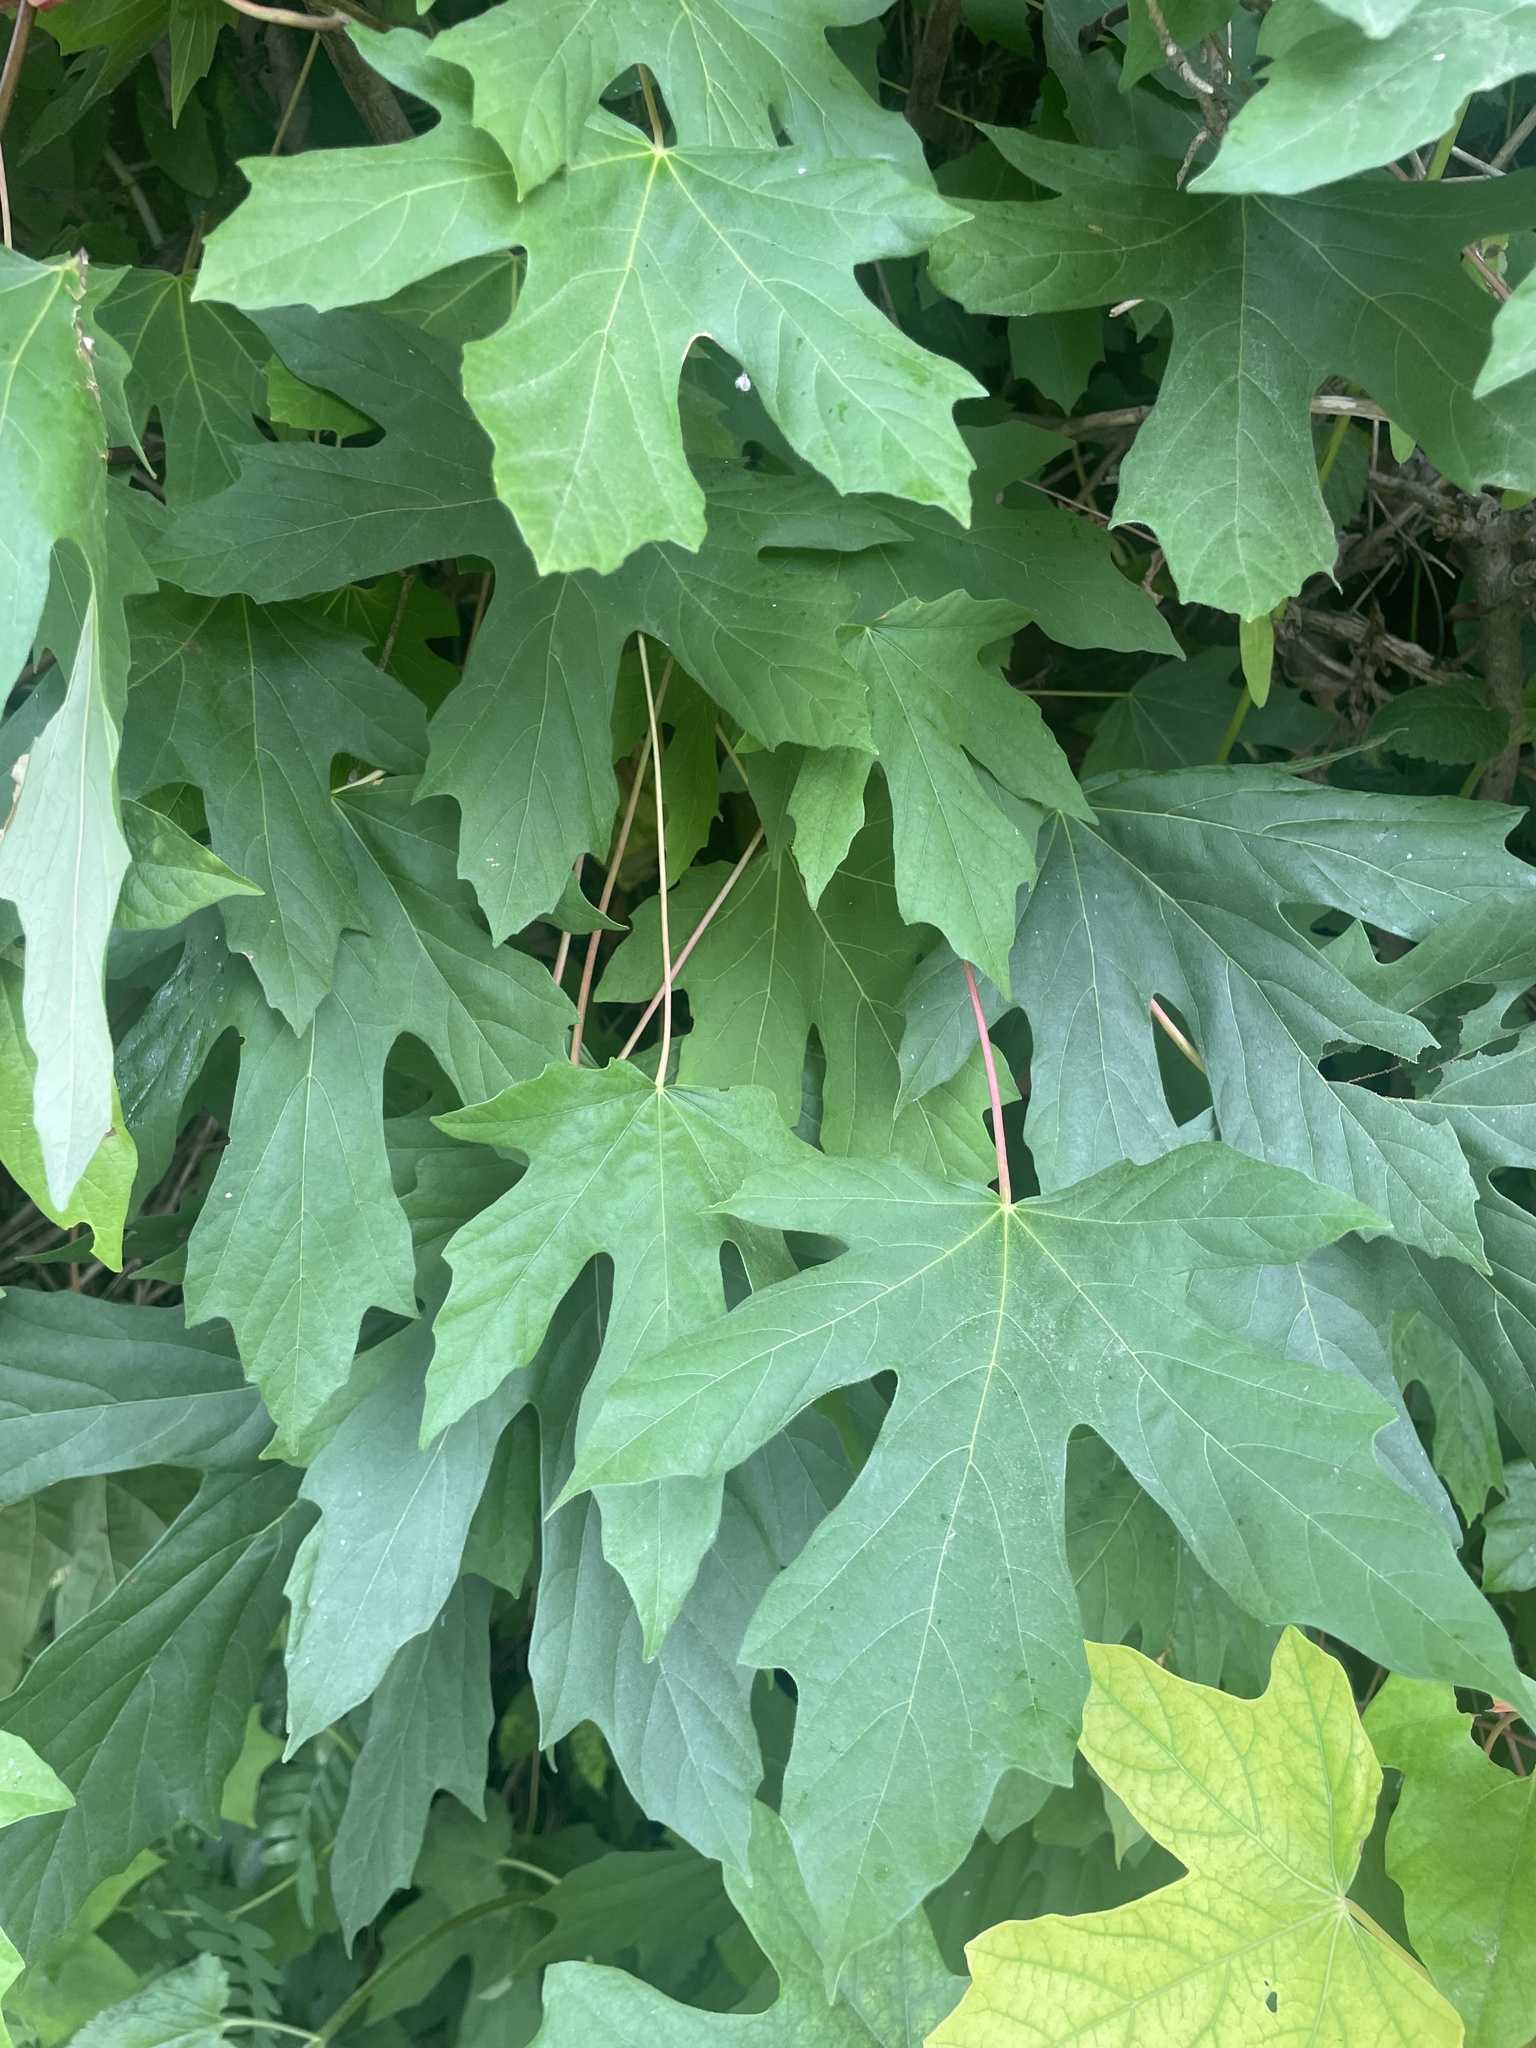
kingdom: Plantae
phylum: Tracheophyta
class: Magnoliopsida
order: Sapindales
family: Sapindaceae
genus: Acer
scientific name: Acer macrophyllum
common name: Oregon maple
